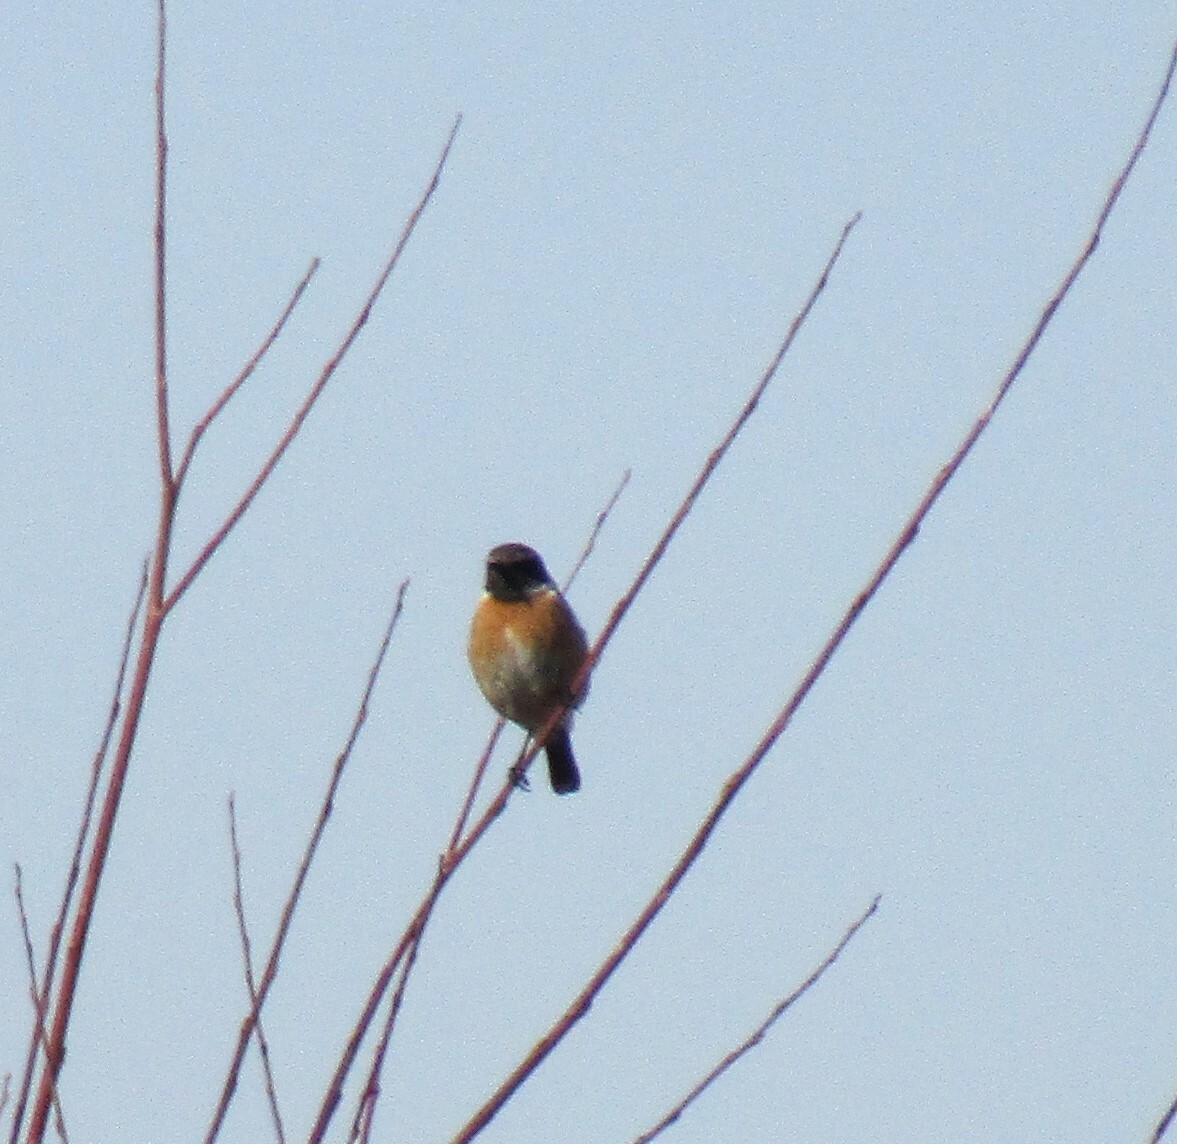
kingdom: Animalia
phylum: Chordata
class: Aves
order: Passeriformes
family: Muscicapidae
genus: Saxicola
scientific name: Saxicola rubicola
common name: European stonechat
